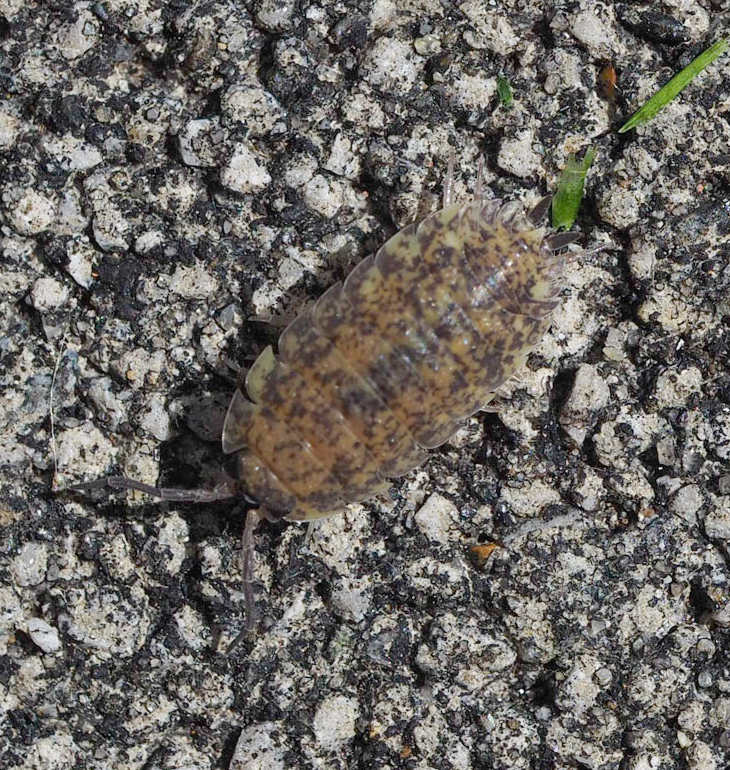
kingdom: Animalia
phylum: Arthropoda
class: Malacostraca
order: Isopoda
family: Porcellionidae
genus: Porcellio
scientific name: Porcellio scaber
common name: Common rough woodlouse
